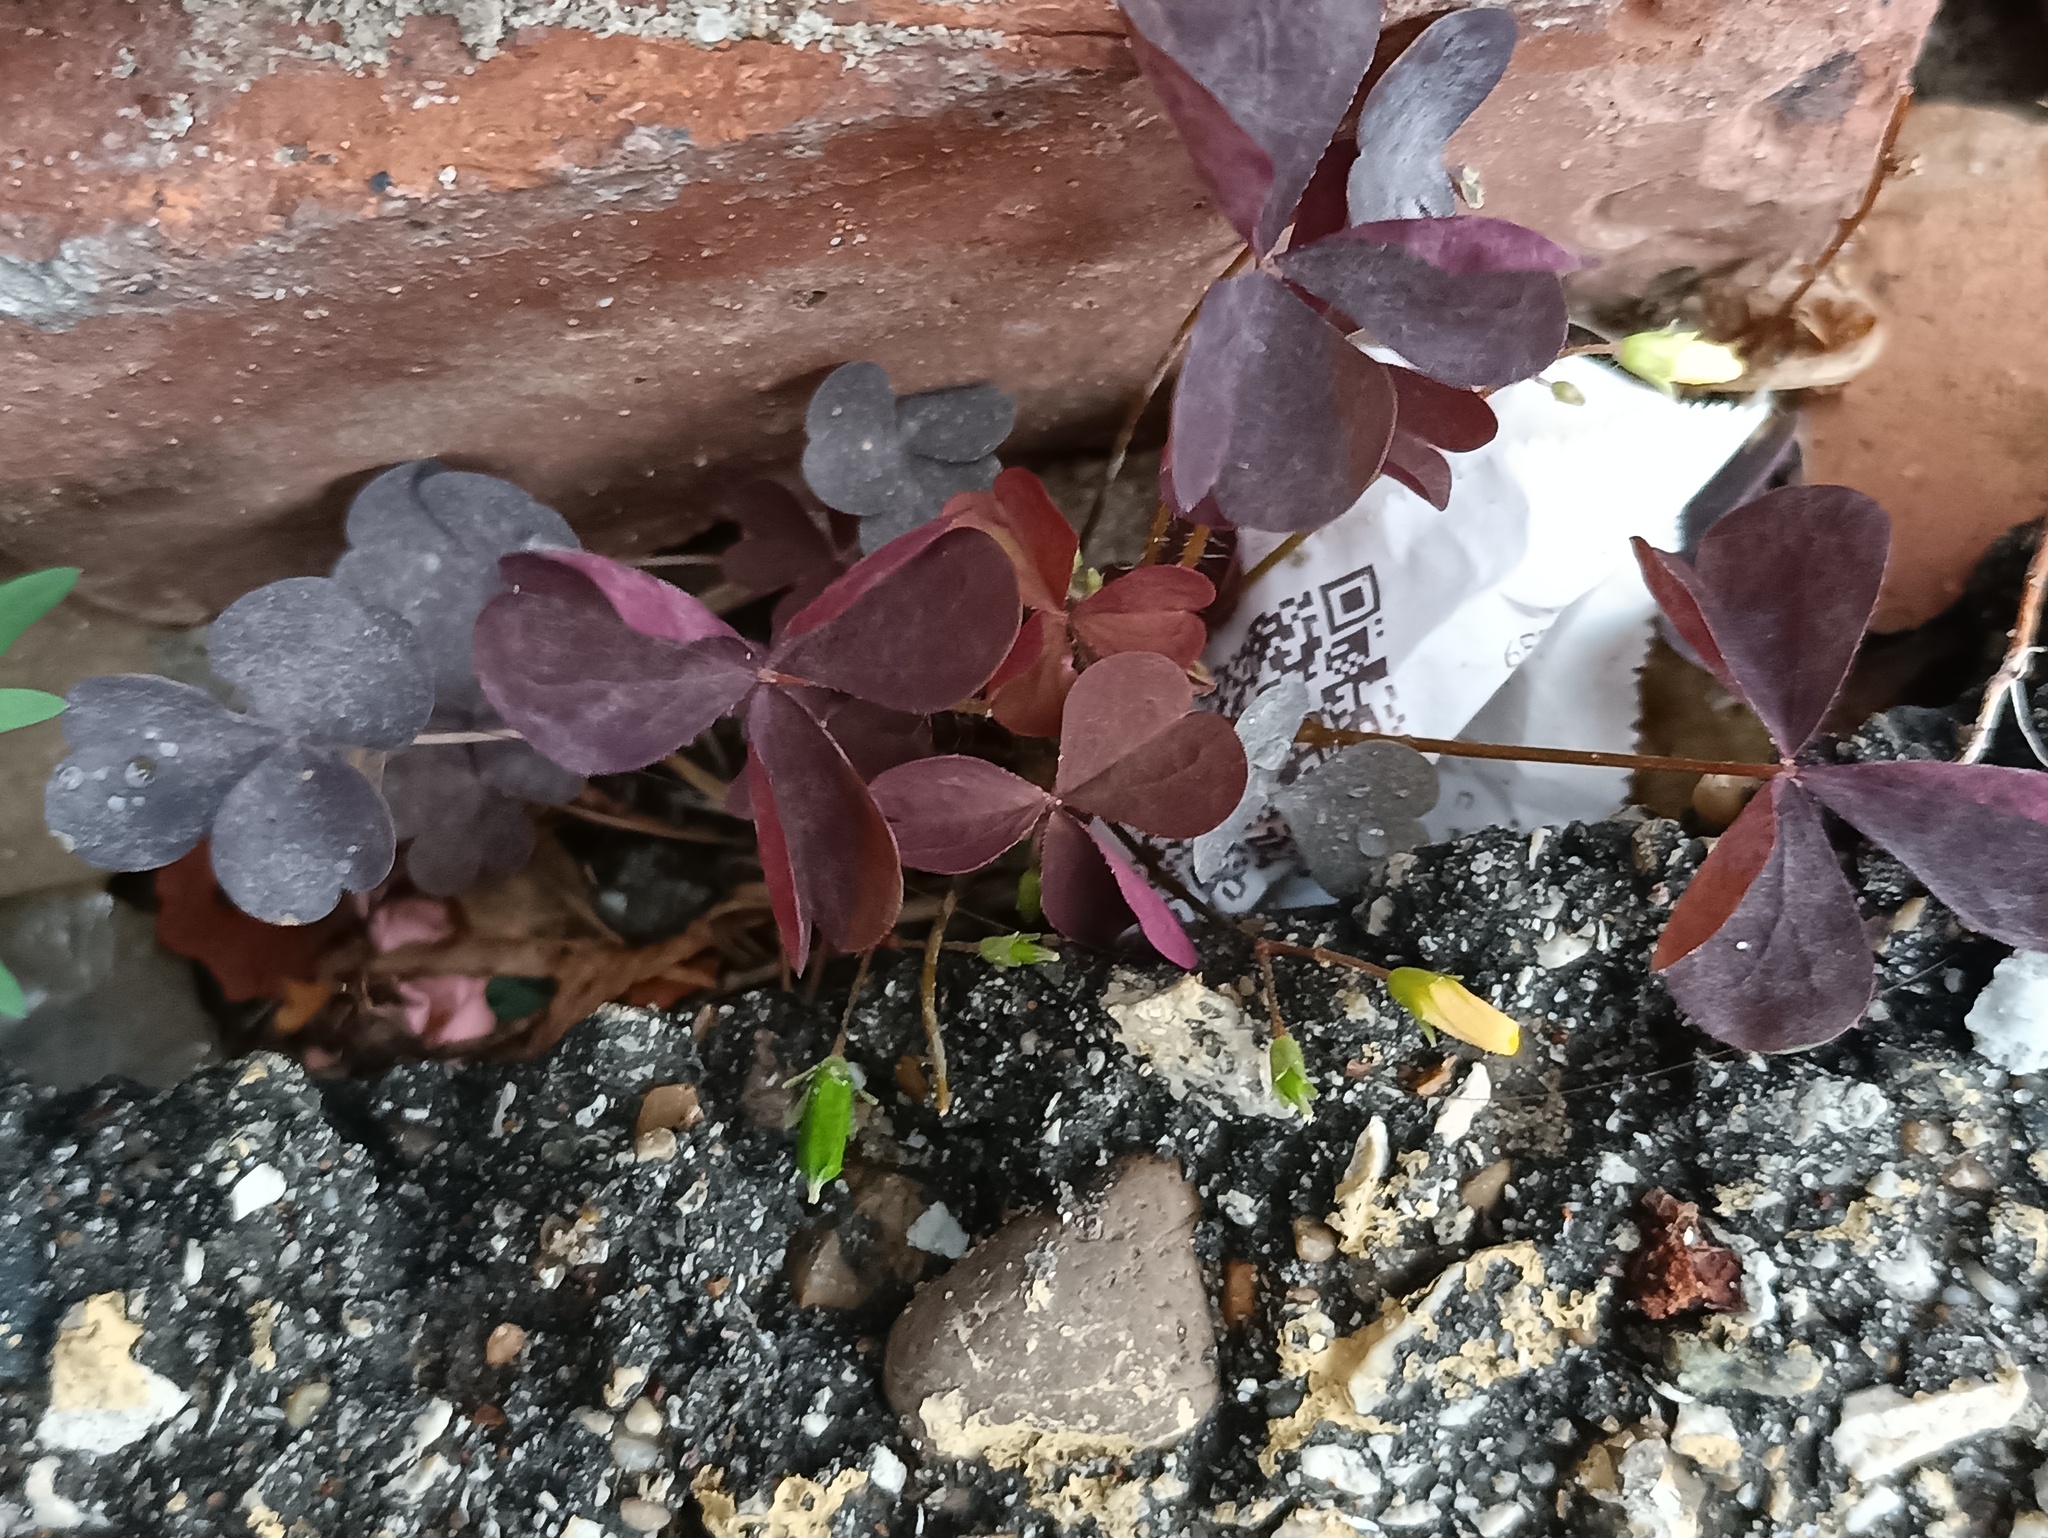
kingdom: Plantae
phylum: Tracheophyta
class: Magnoliopsida
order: Oxalidales
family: Oxalidaceae
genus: Oxalis
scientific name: Oxalis stricta
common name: Upright yellow-sorrel
